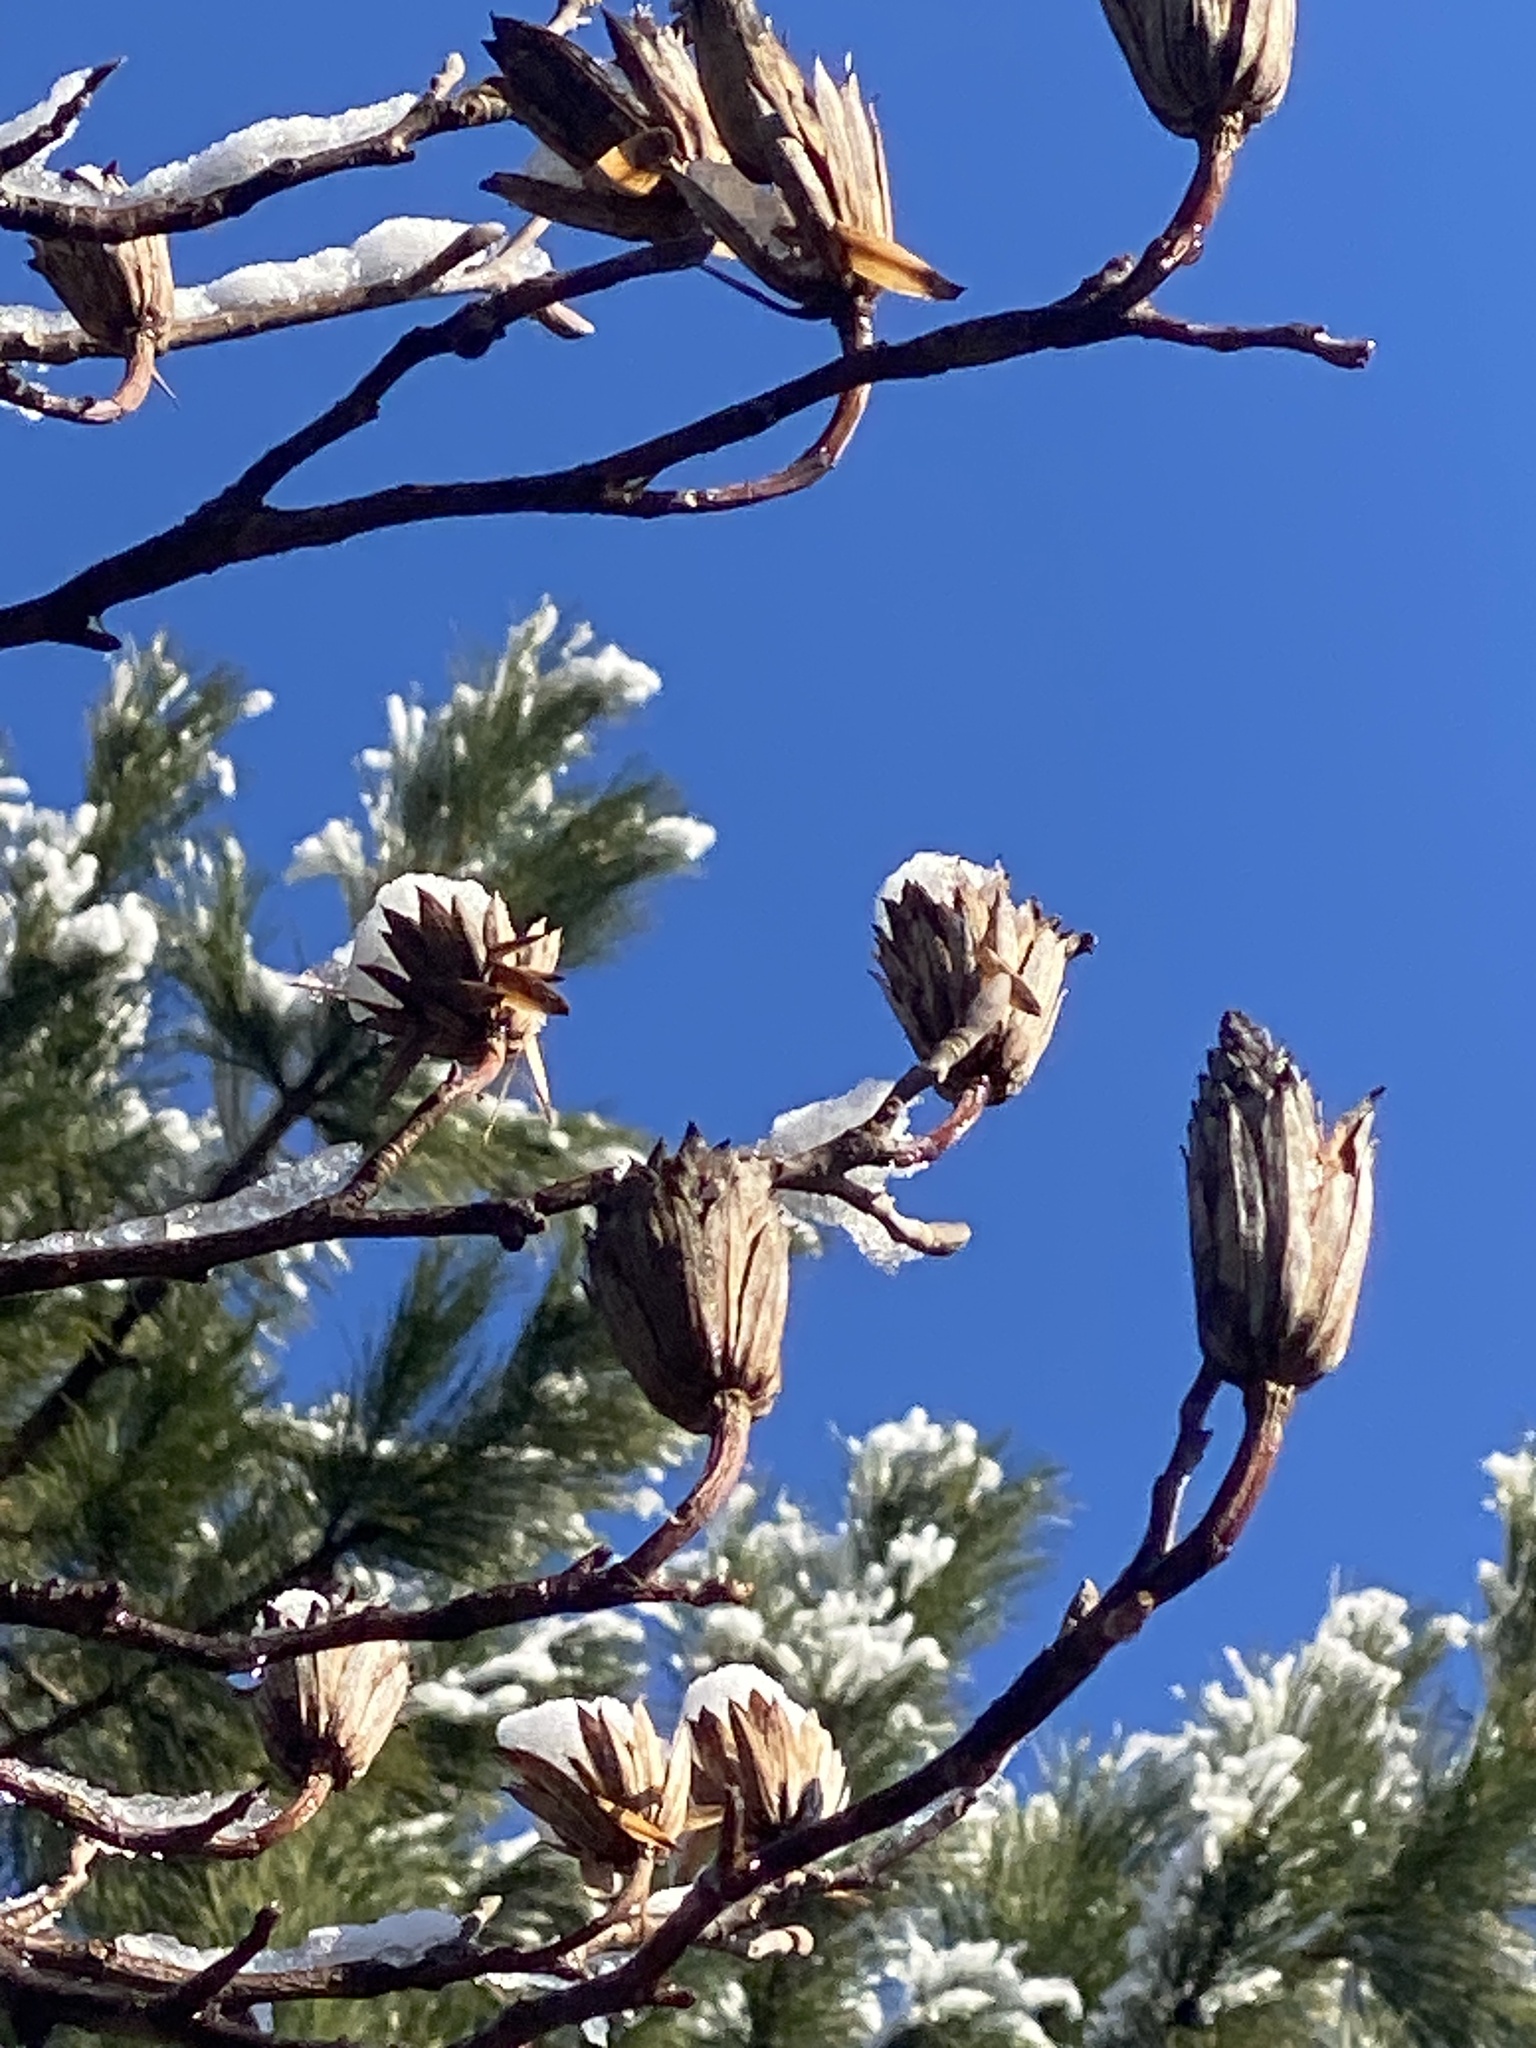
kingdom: Plantae
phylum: Tracheophyta
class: Magnoliopsida
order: Magnoliales
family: Magnoliaceae
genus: Liriodendron
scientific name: Liriodendron tulipifera
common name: Tulip tree
